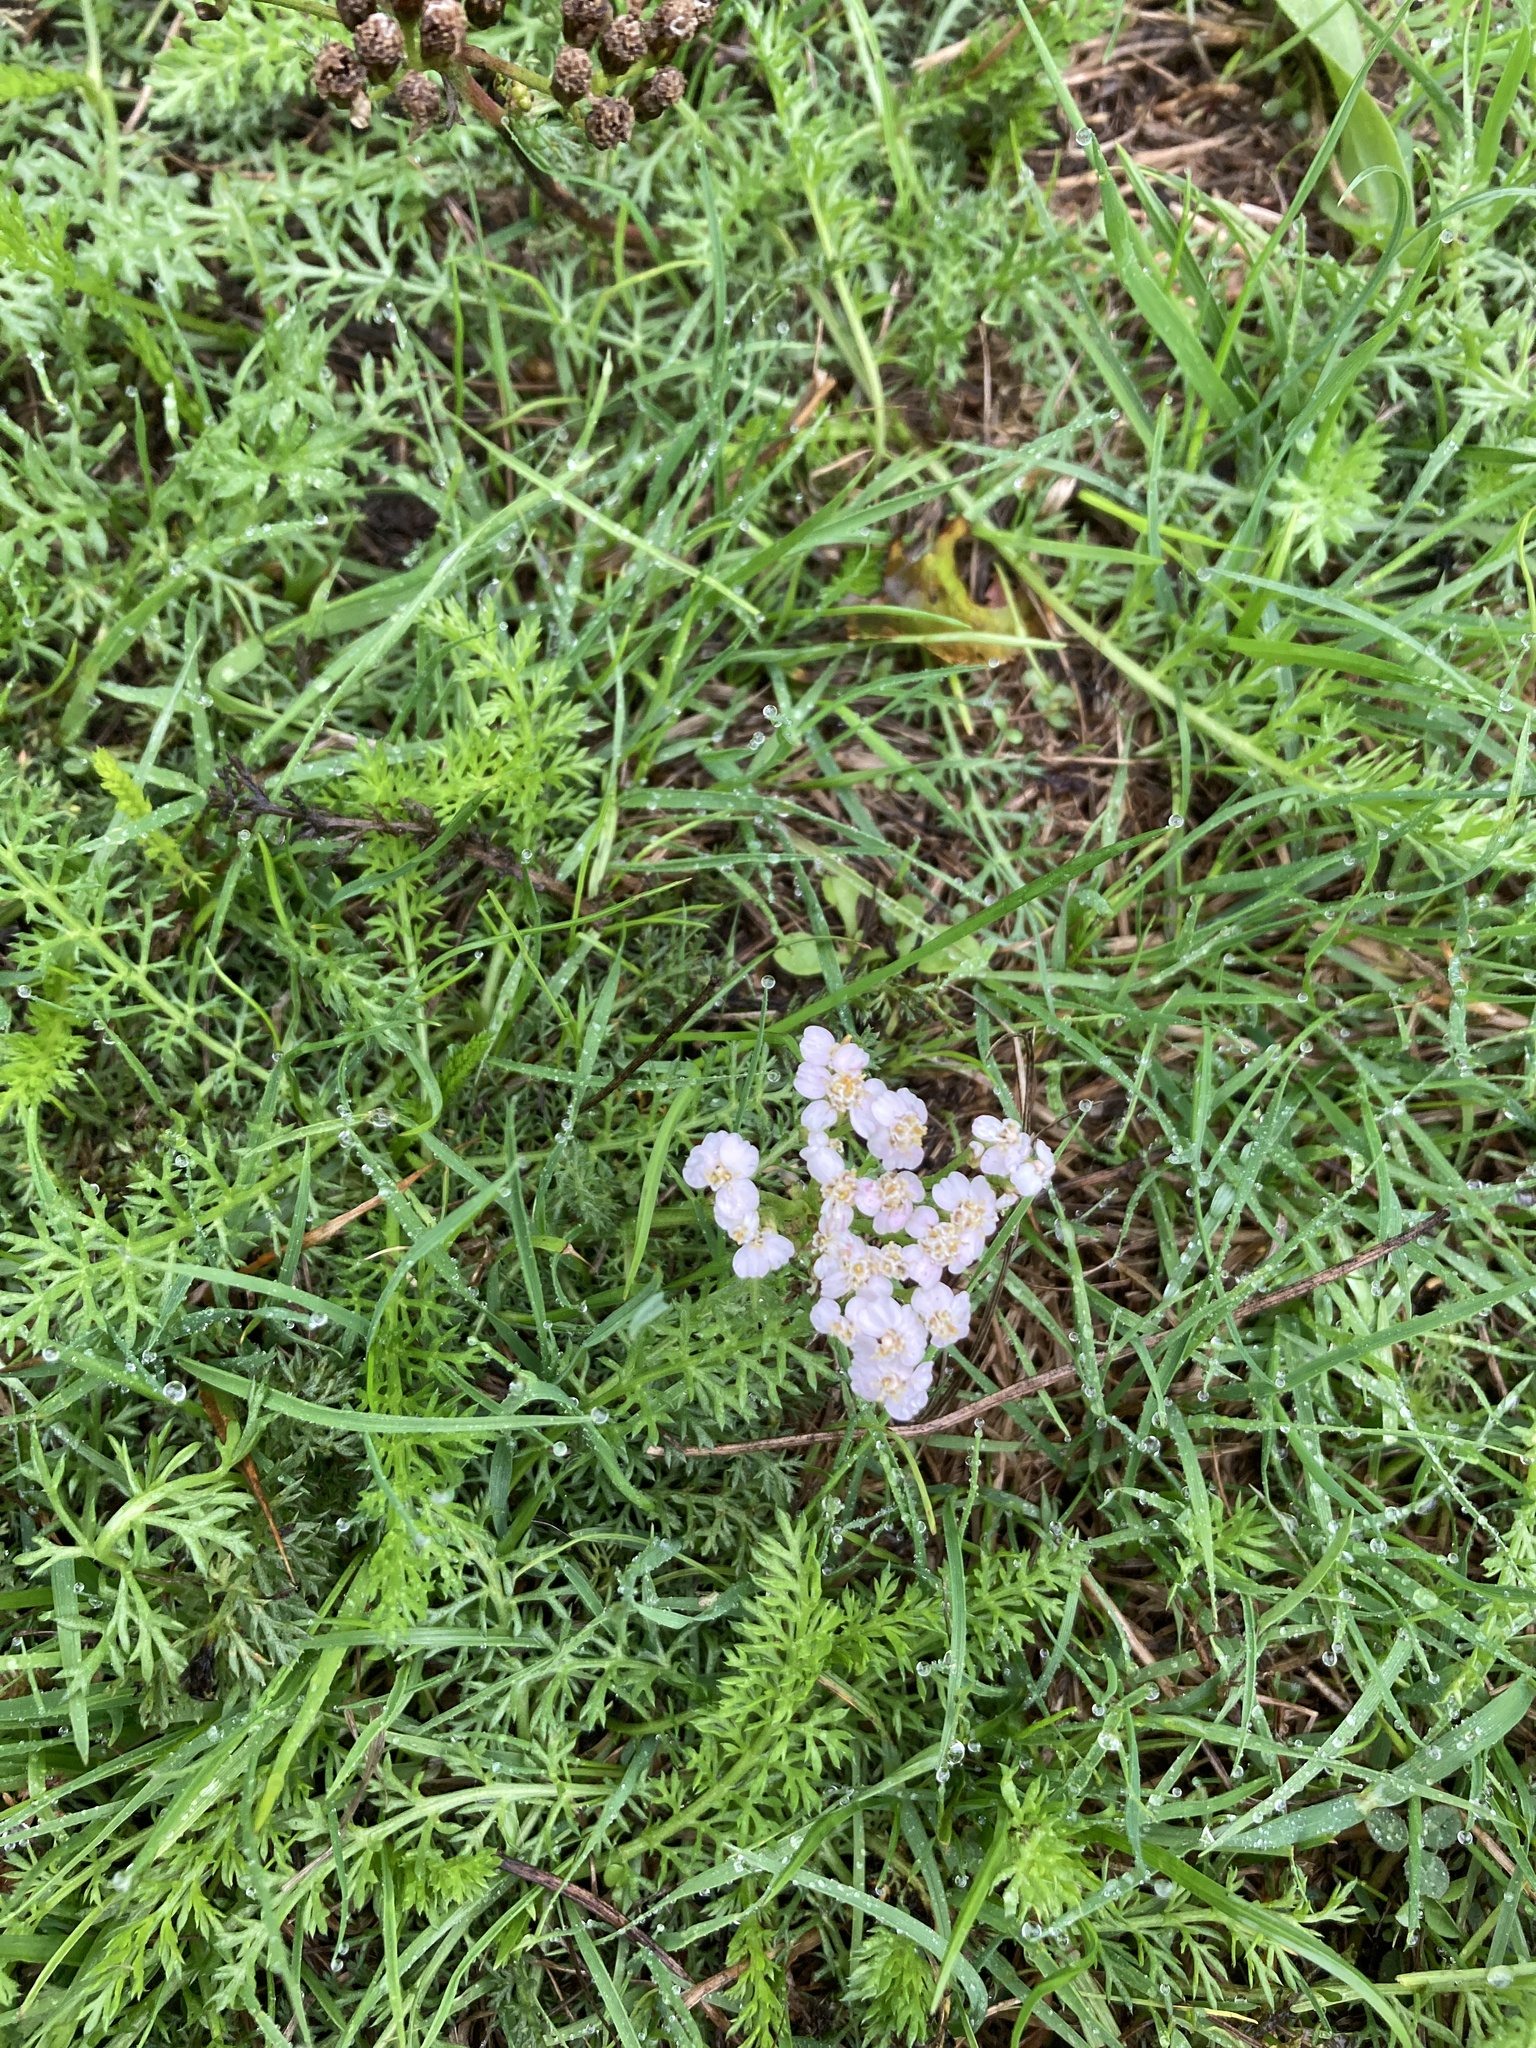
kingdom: Plantae
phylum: Tracheophyta
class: Magnoliopsida
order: Asterales
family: Asteraceae
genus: Achillea
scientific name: Achillea millefolium
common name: Yarrow
